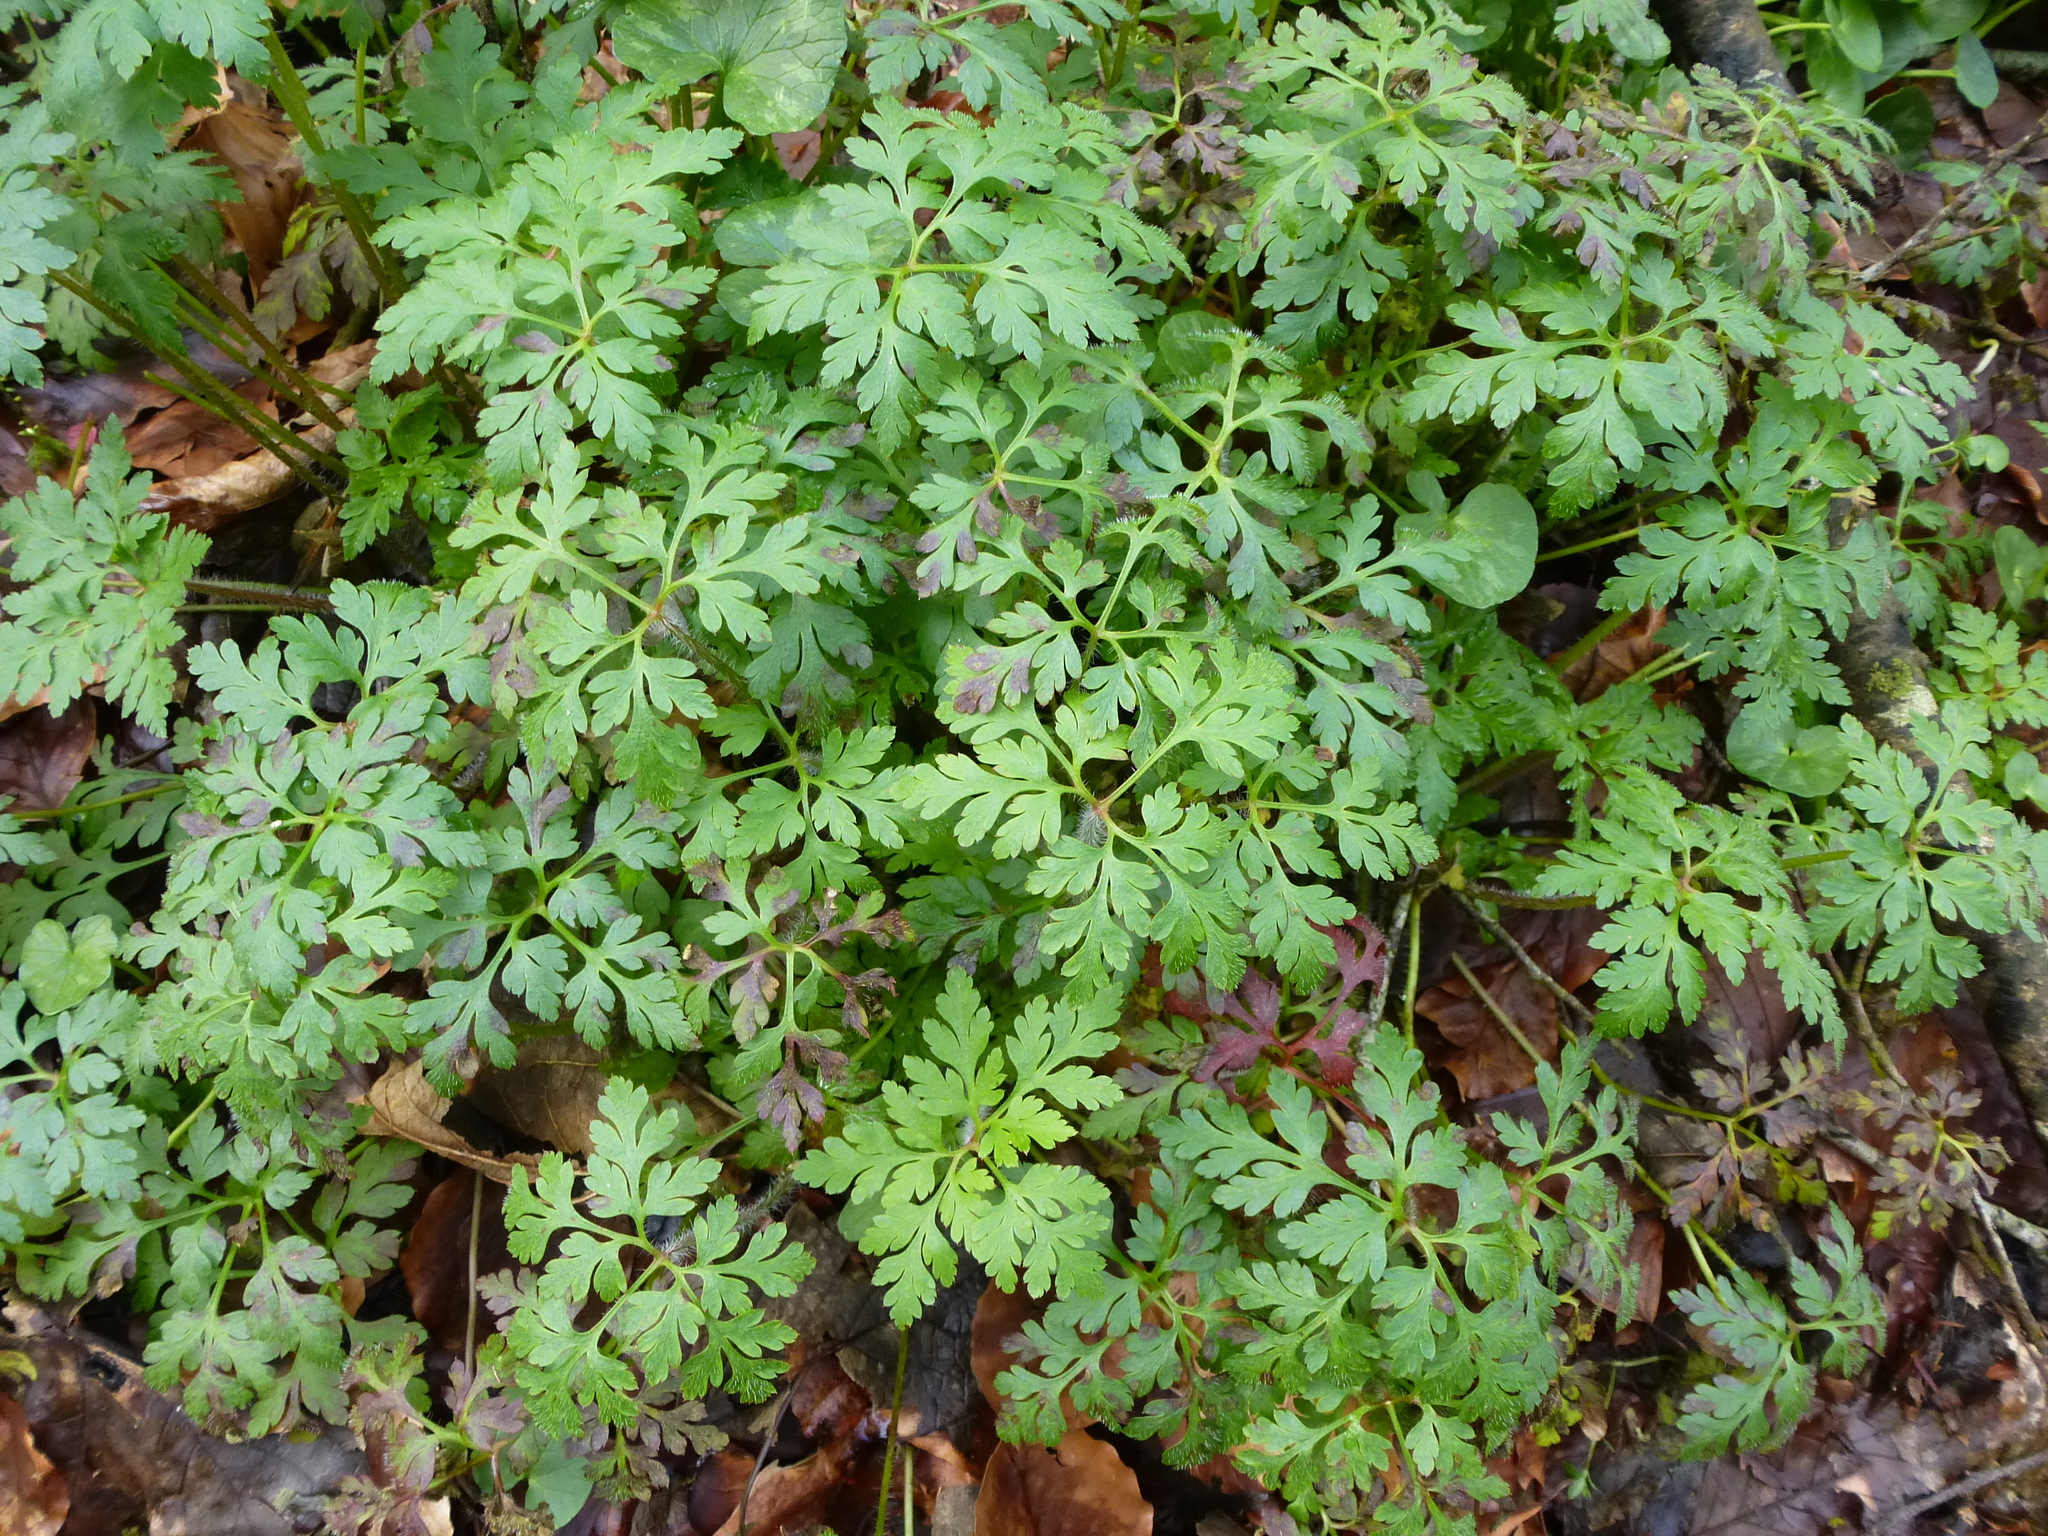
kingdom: Plantae
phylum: Tracheophyta
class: Magnoliopsida
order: Geraniales
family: Geraniaceae
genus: Geranium
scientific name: Geranium robertianum
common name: Herb-robert
